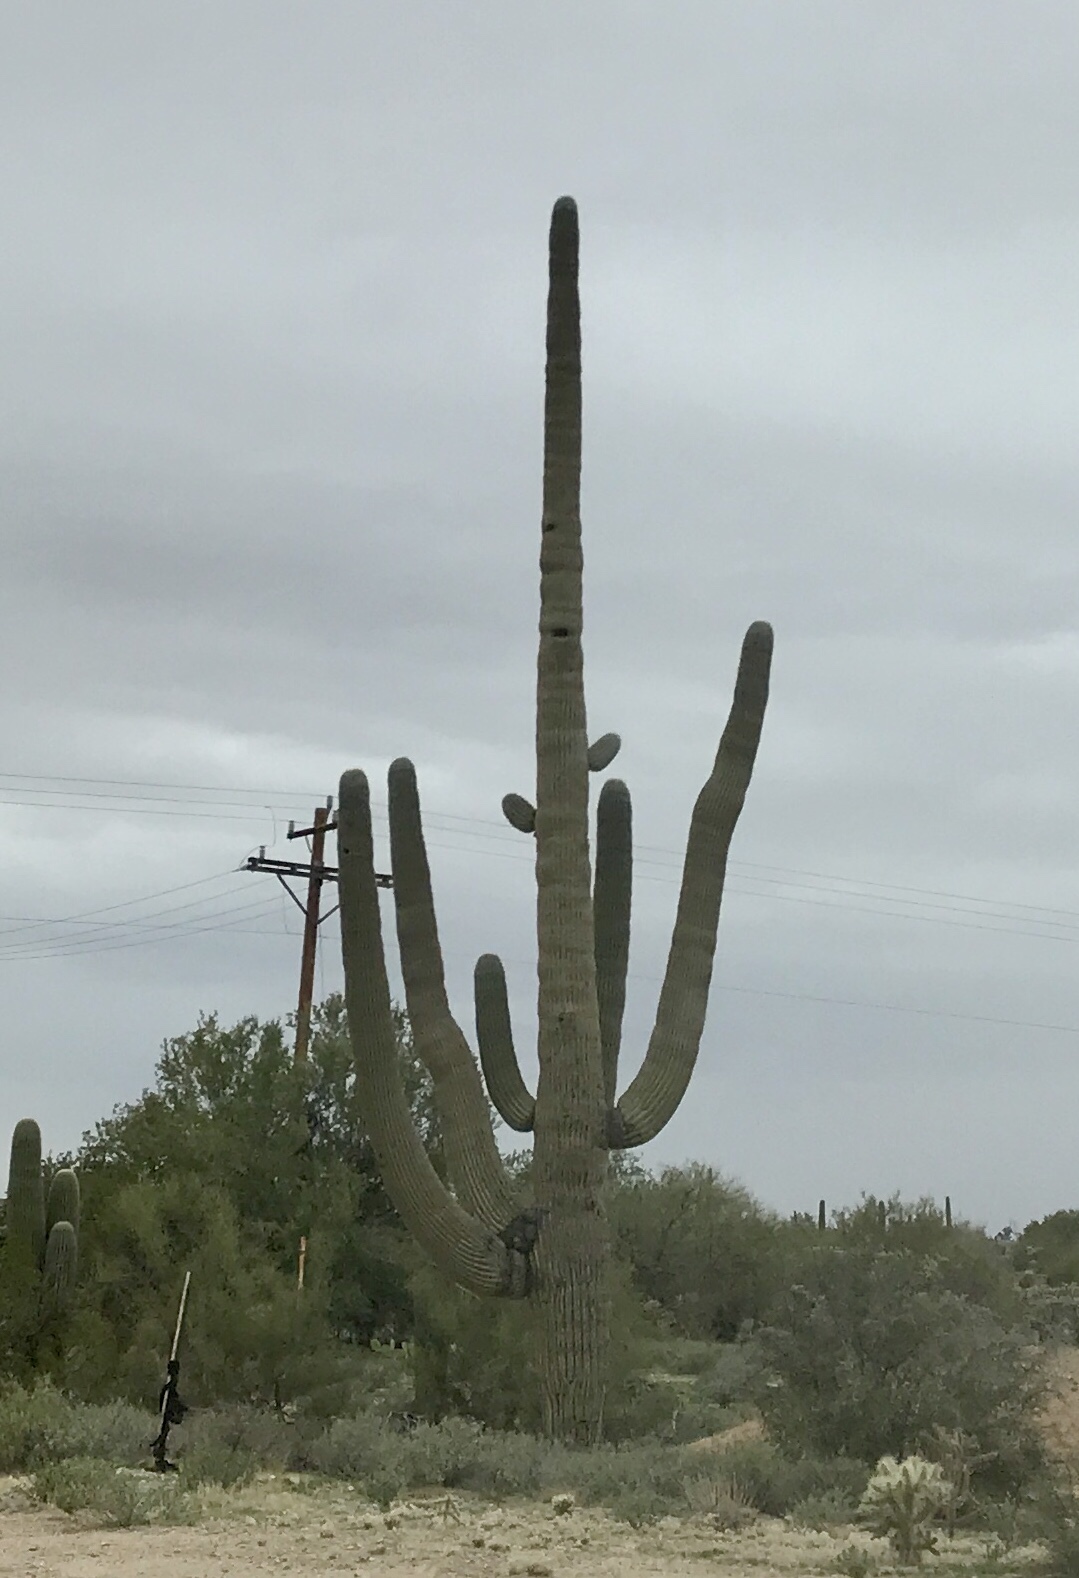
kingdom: Plantae
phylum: Tracheophyta
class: Magnoliopsida
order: Caryophyllales
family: Cactaceae
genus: Carnegiea
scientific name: Carnegiea gigantea
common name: Saguaro
